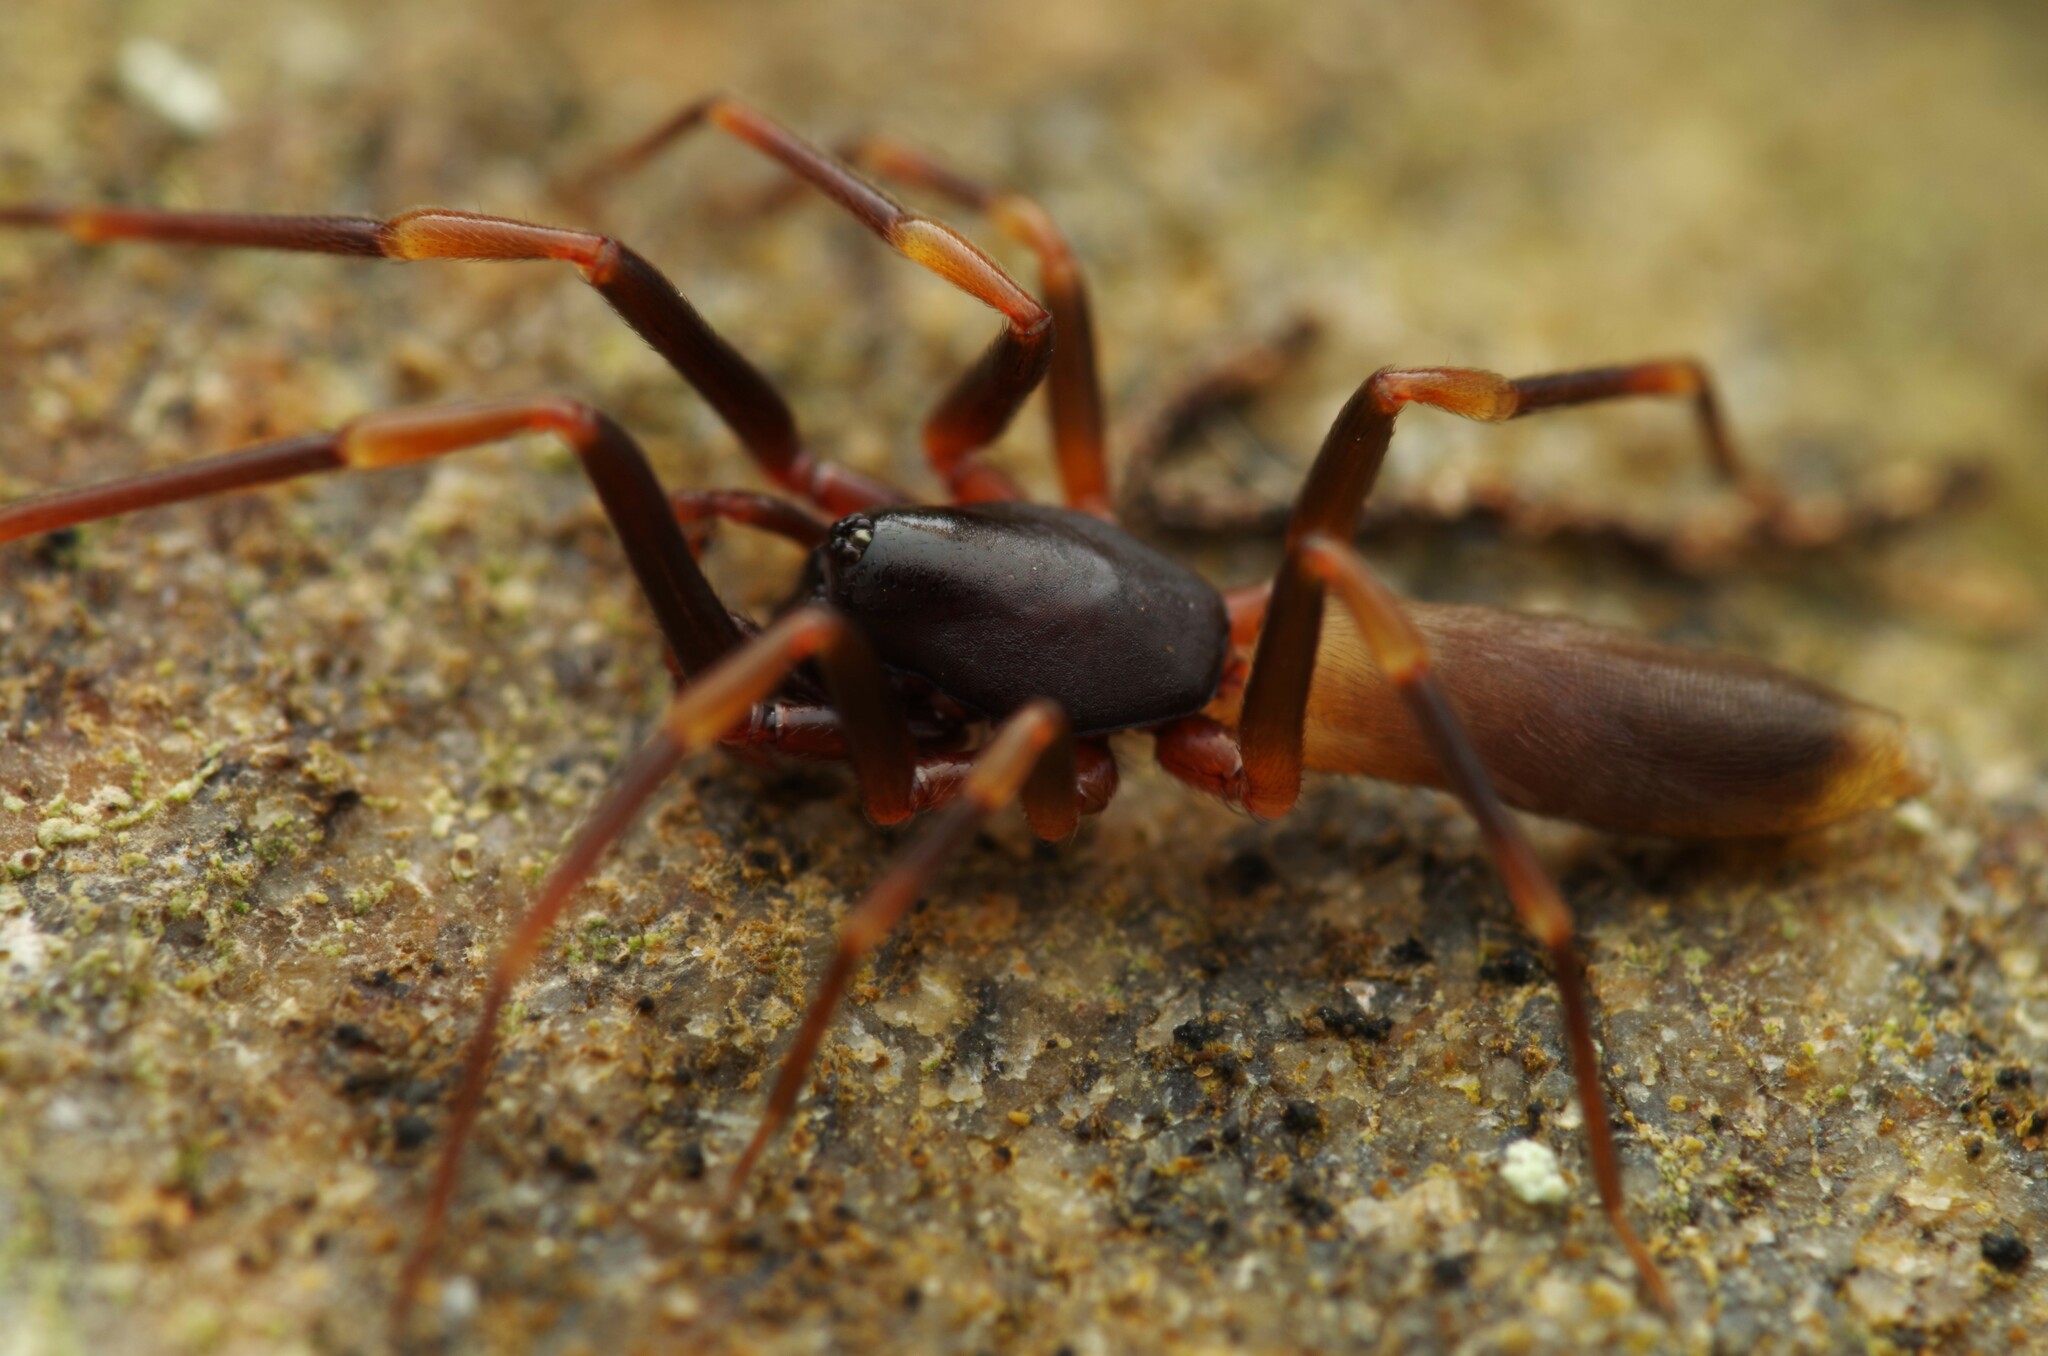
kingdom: Animalia
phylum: Arthropoda
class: Arachnida
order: Araneae
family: Dysderidae
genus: Harpactea
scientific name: Harpactea hombergi
